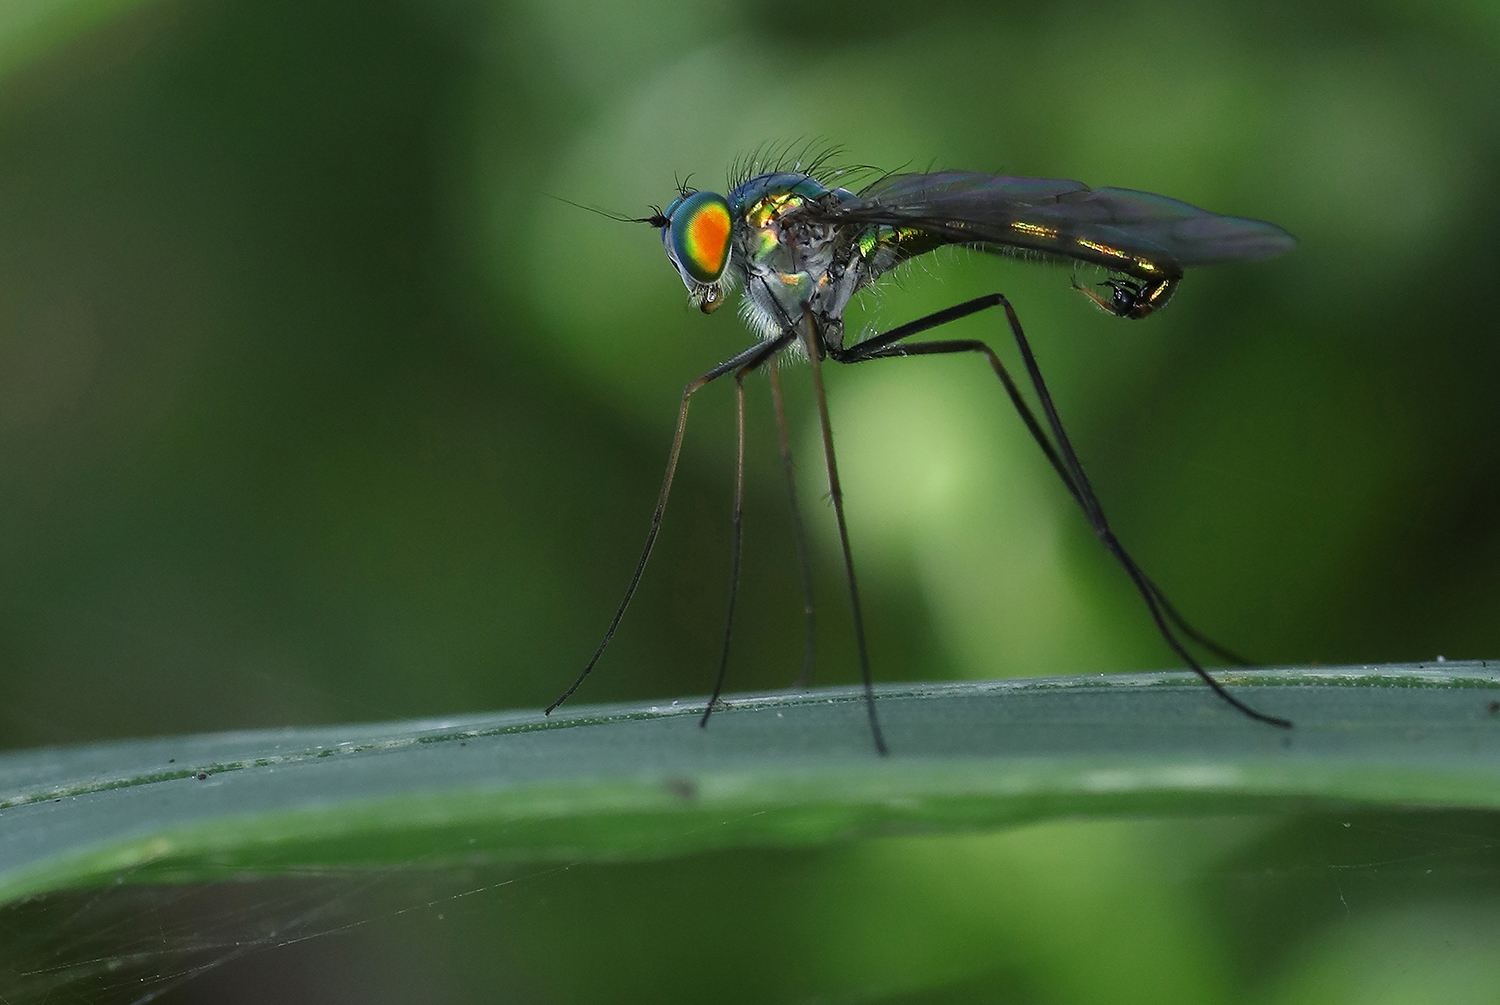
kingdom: Animalia
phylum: Arthropoda
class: Insecta
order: Diptera
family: Dolichopodidae
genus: Heteropsilopus
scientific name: Heteropsilopus cingulipes
